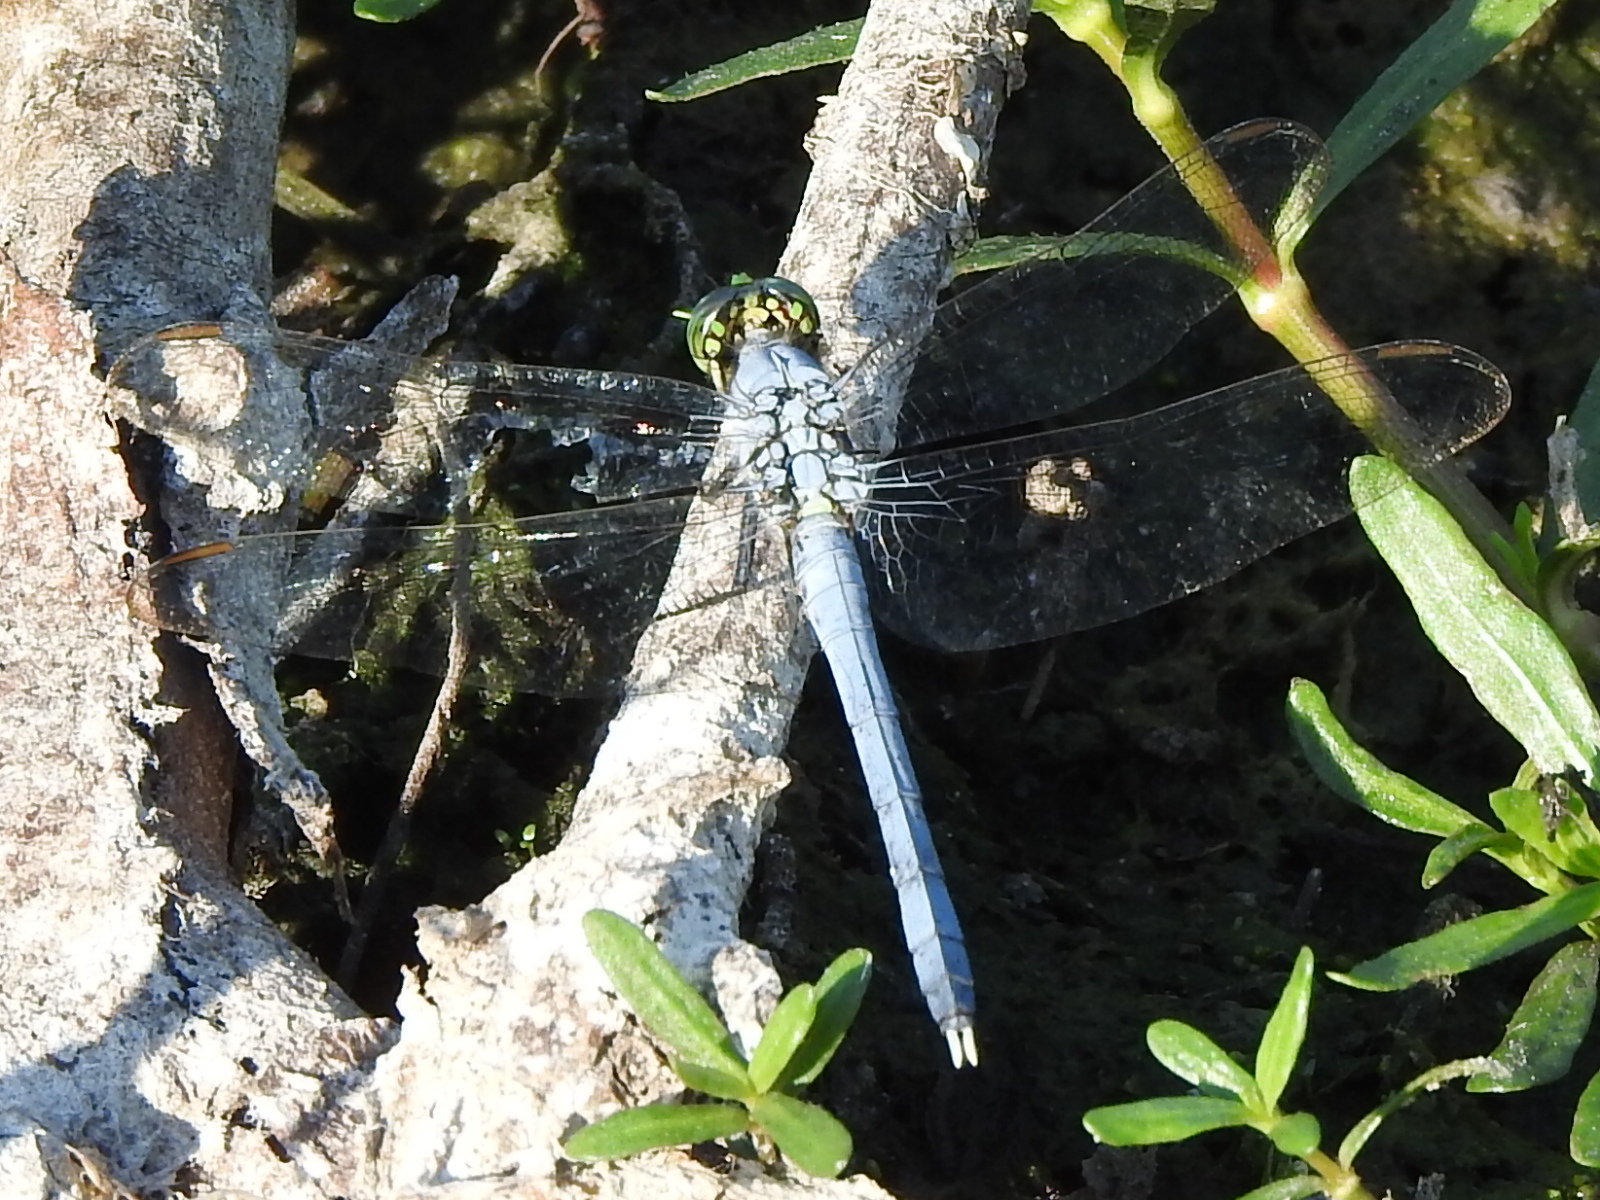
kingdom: Animalia
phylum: Arthropoda
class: Insecta
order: Odonata
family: Libellulidae
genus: Erythemis
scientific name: Erythemis simplicicollis
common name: Eastern pondhawk
